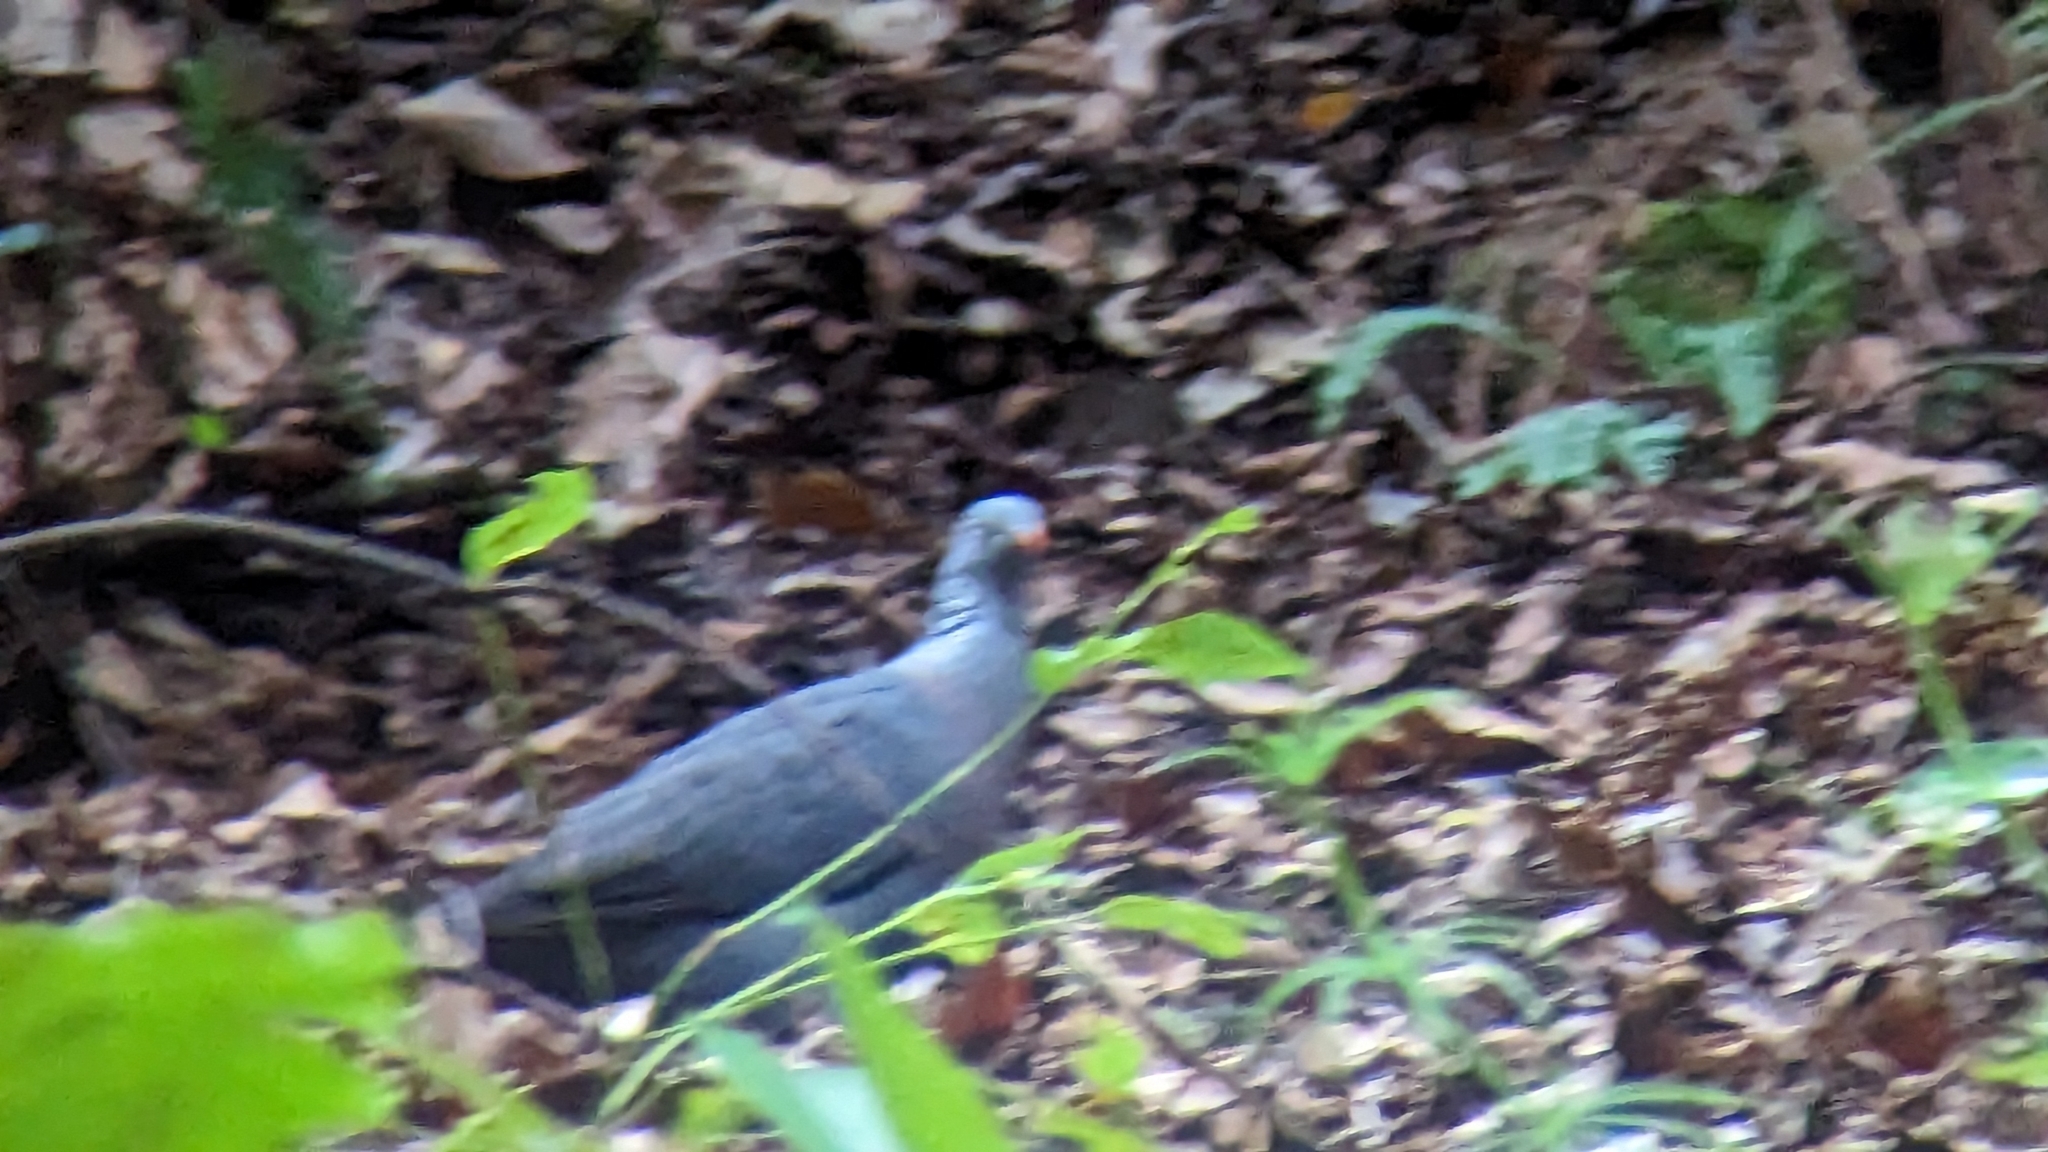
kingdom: Animalia
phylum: Chordata
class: Aves
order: Columbiformes
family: Columbidae
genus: Columba
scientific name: Columba trocaz
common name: Trocaz pigeon
